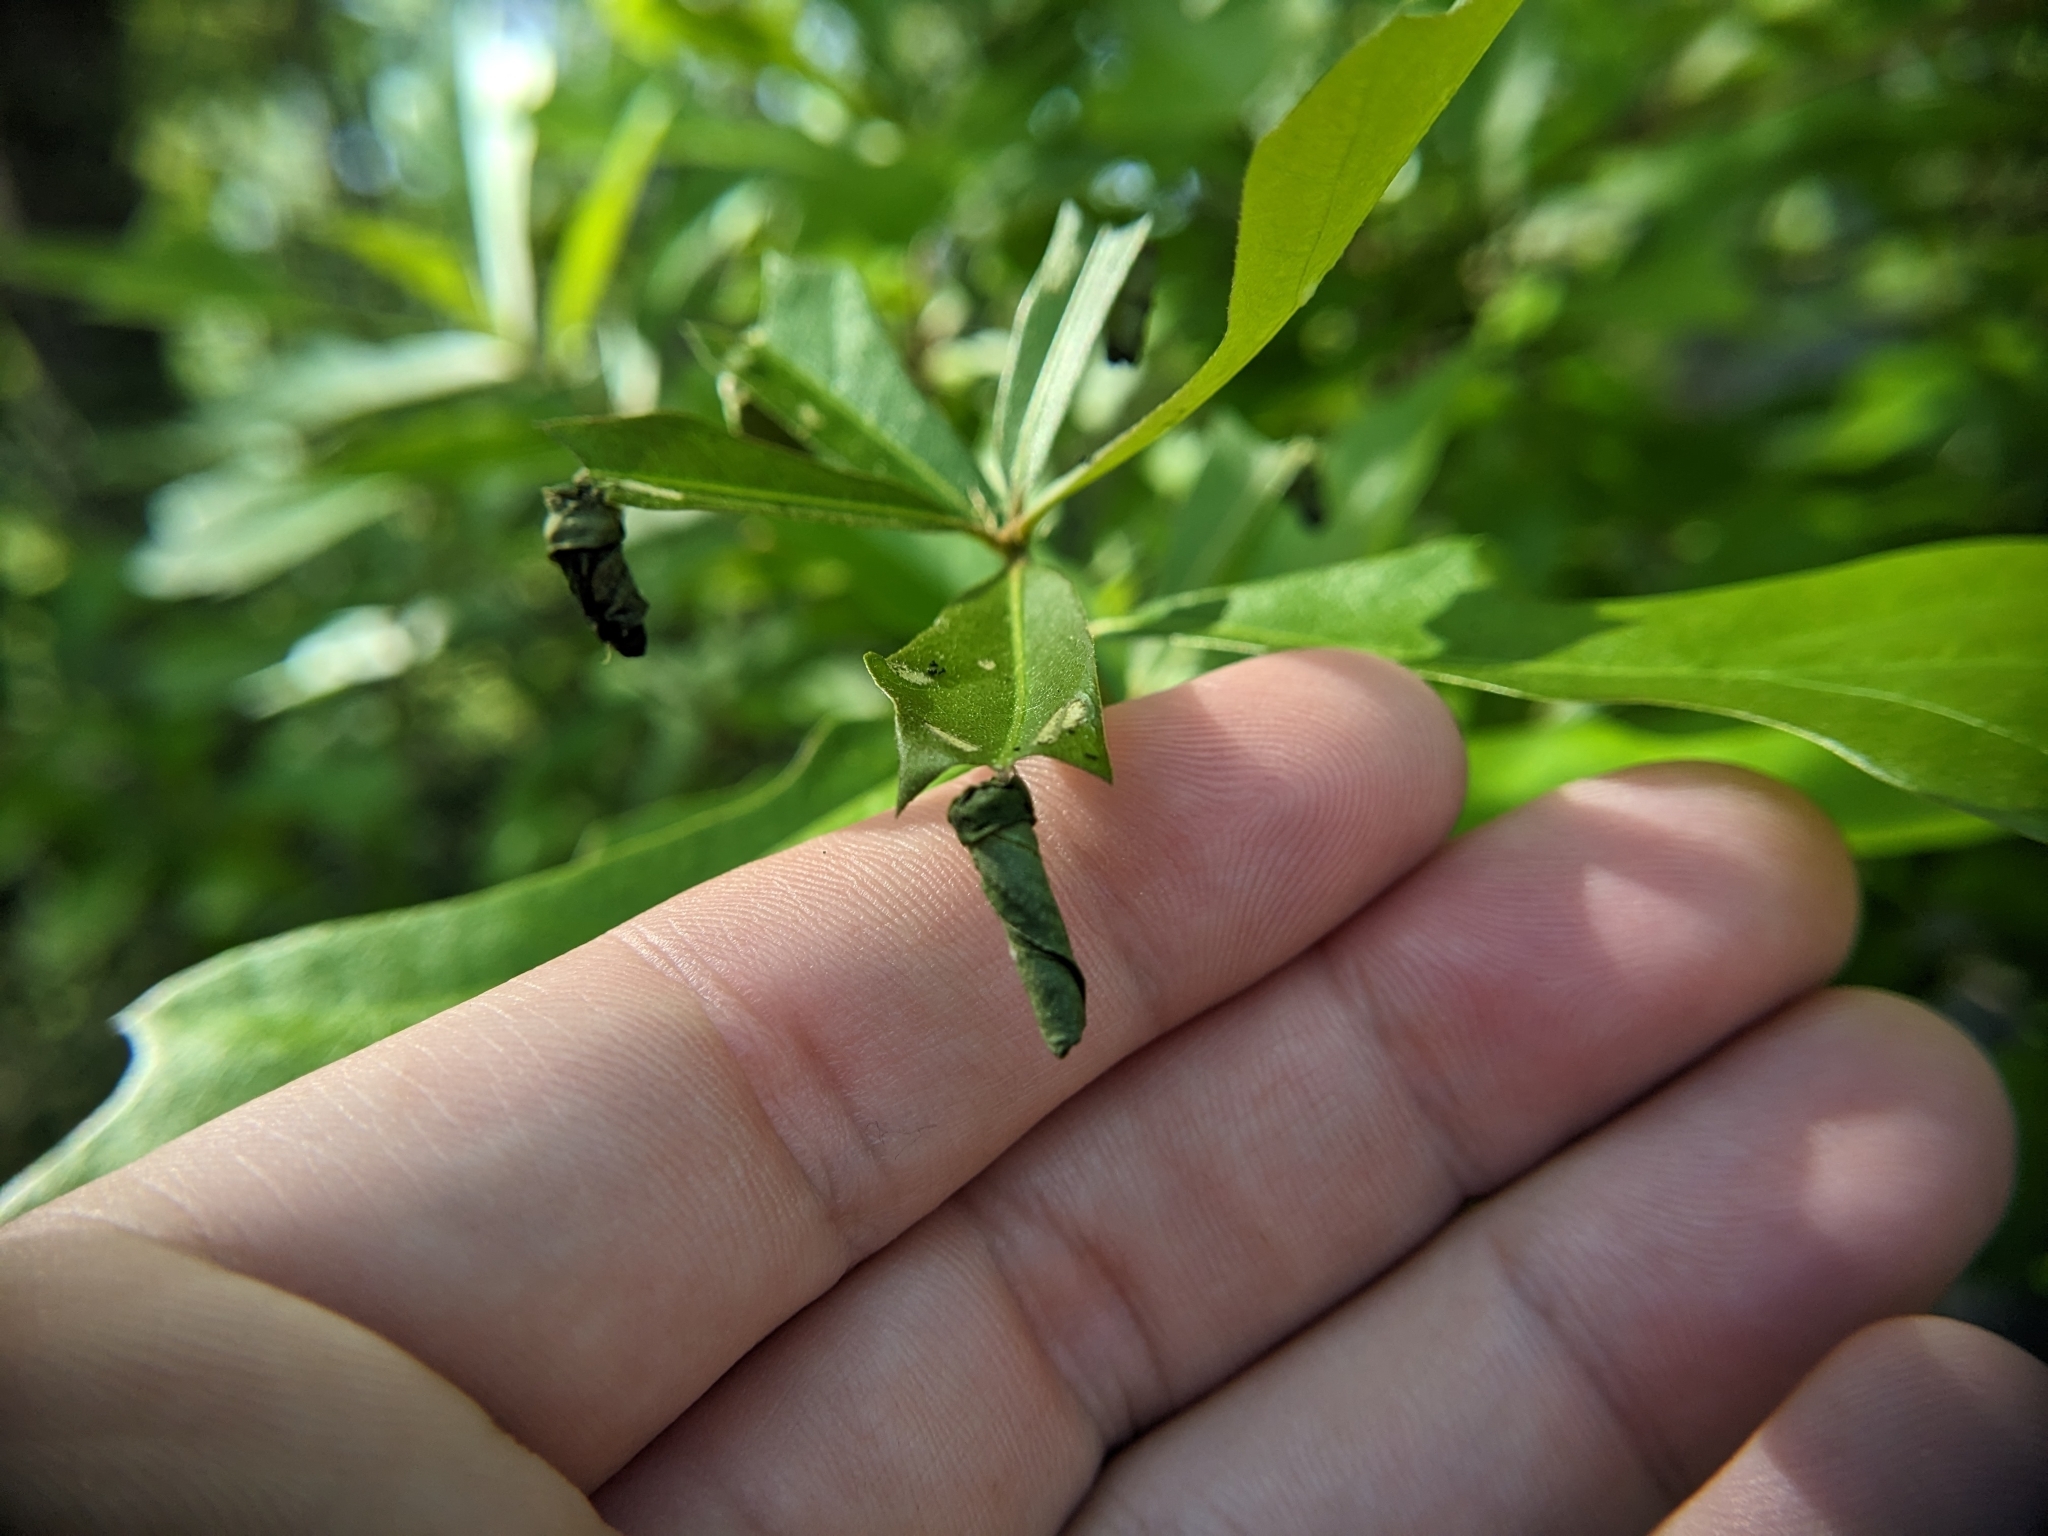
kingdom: Animalia
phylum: Arthropoda
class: Insecta
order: Coleoptera
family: Attelabidae
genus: Homoeolabus
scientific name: Homoeolabus analis
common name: Oak leaf rolling weevil
